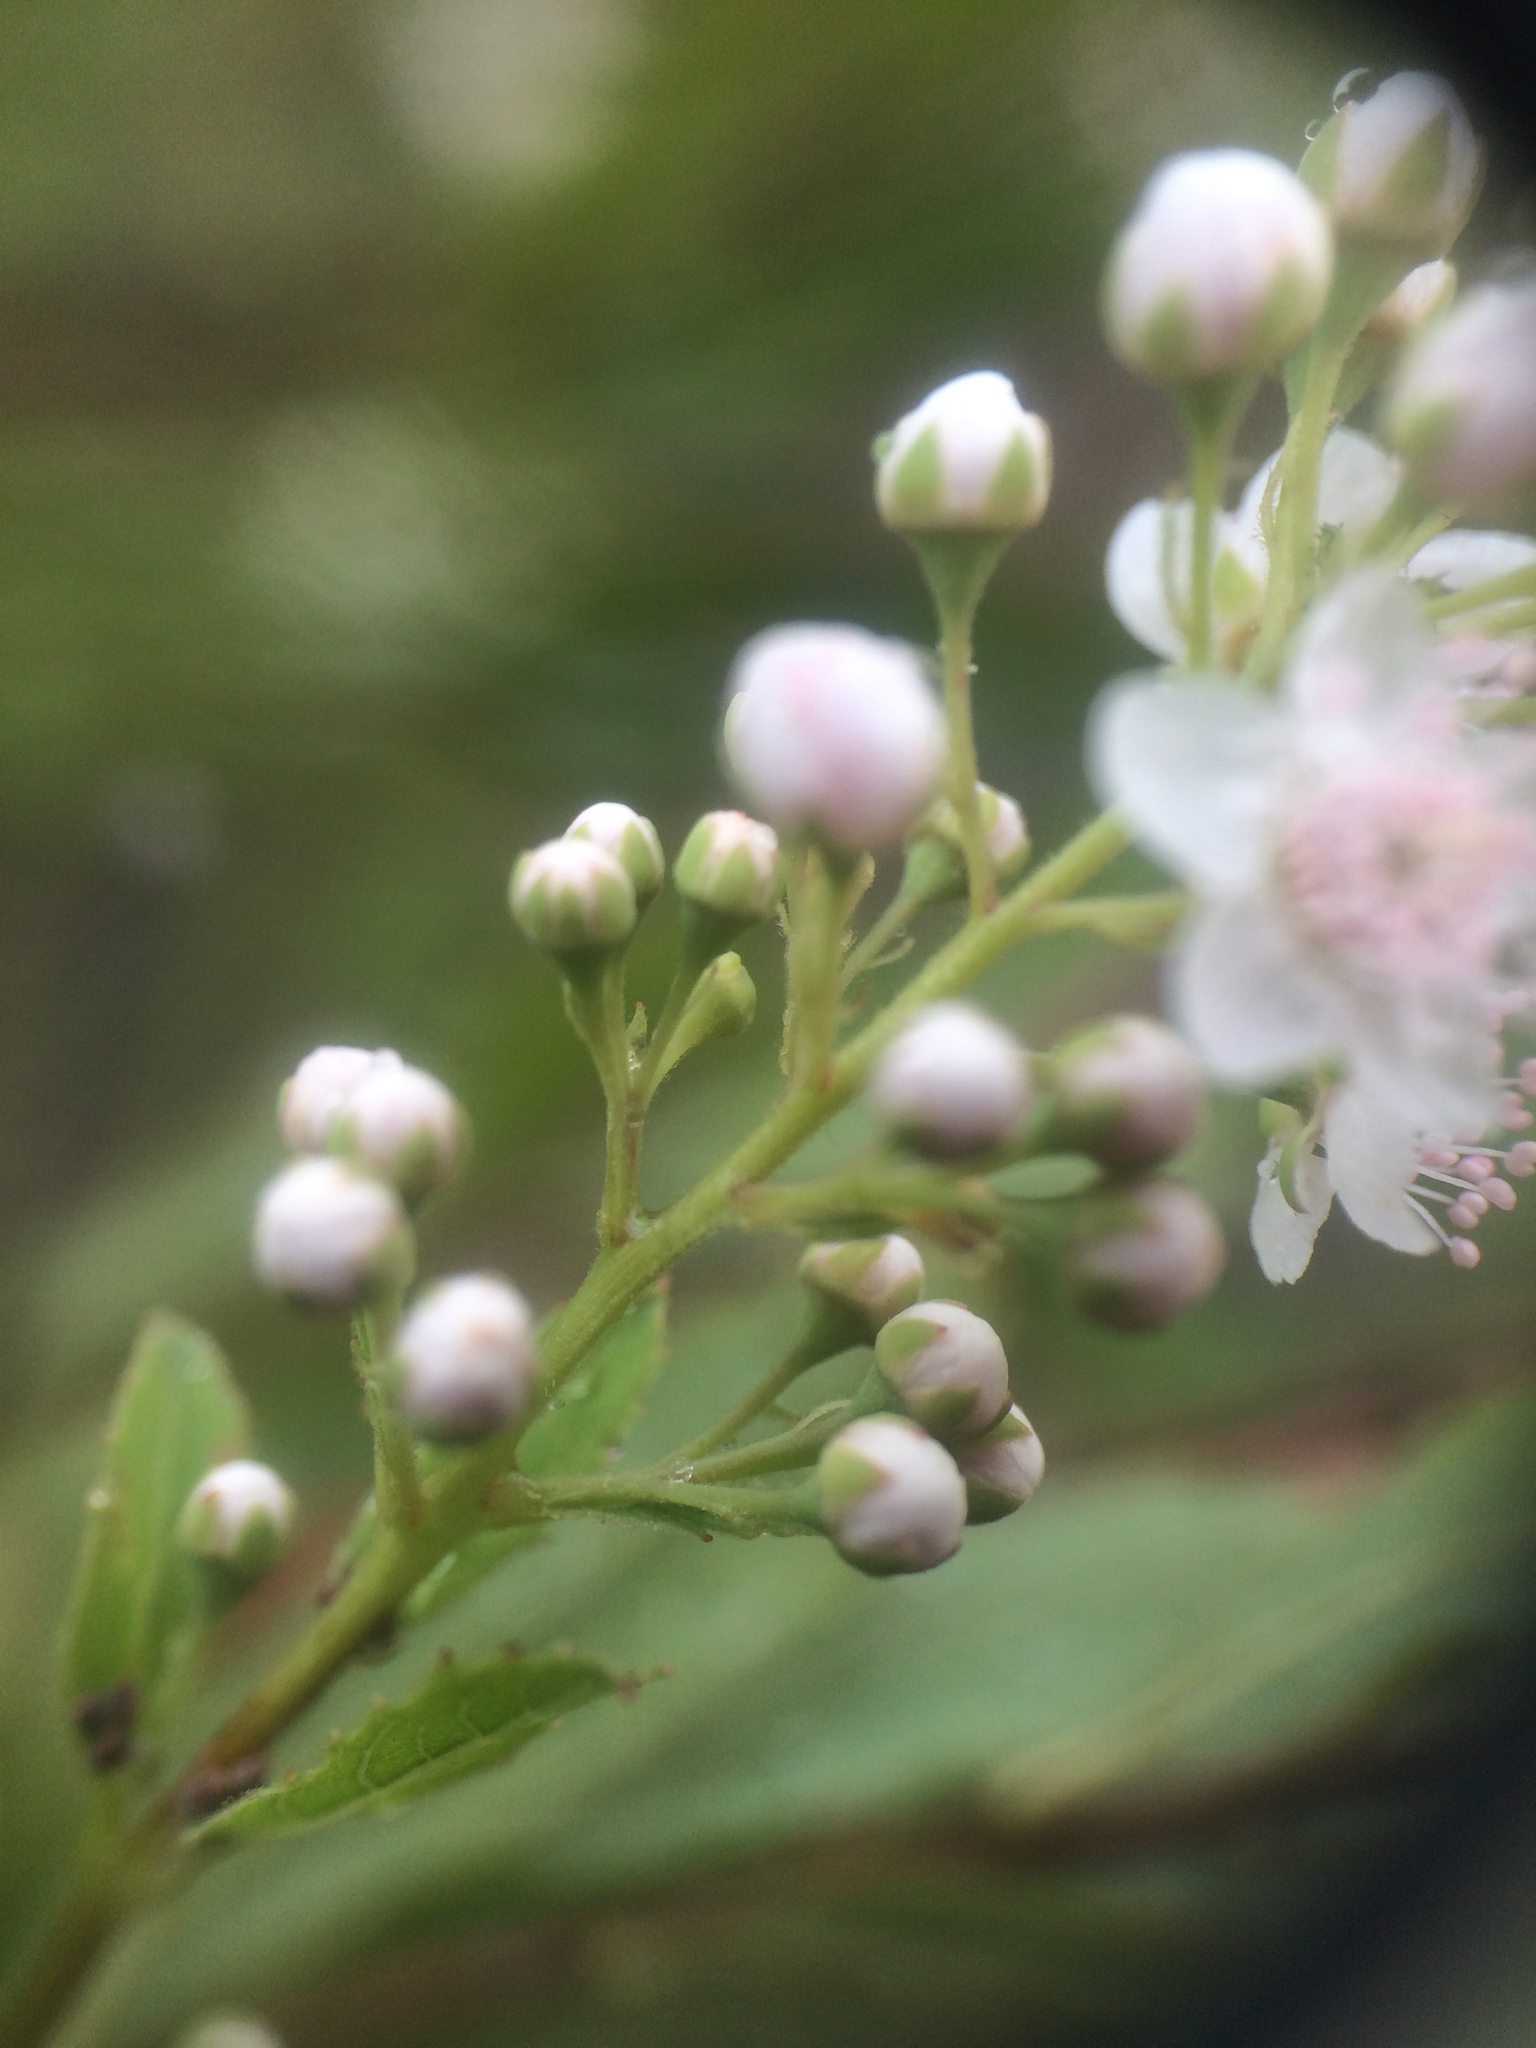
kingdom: Plantae
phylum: Tracheophyta
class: Magnoliopsida
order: Rosales
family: Rosaceae
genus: Spiraea
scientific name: Spiraea alba
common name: Pale bridewort
